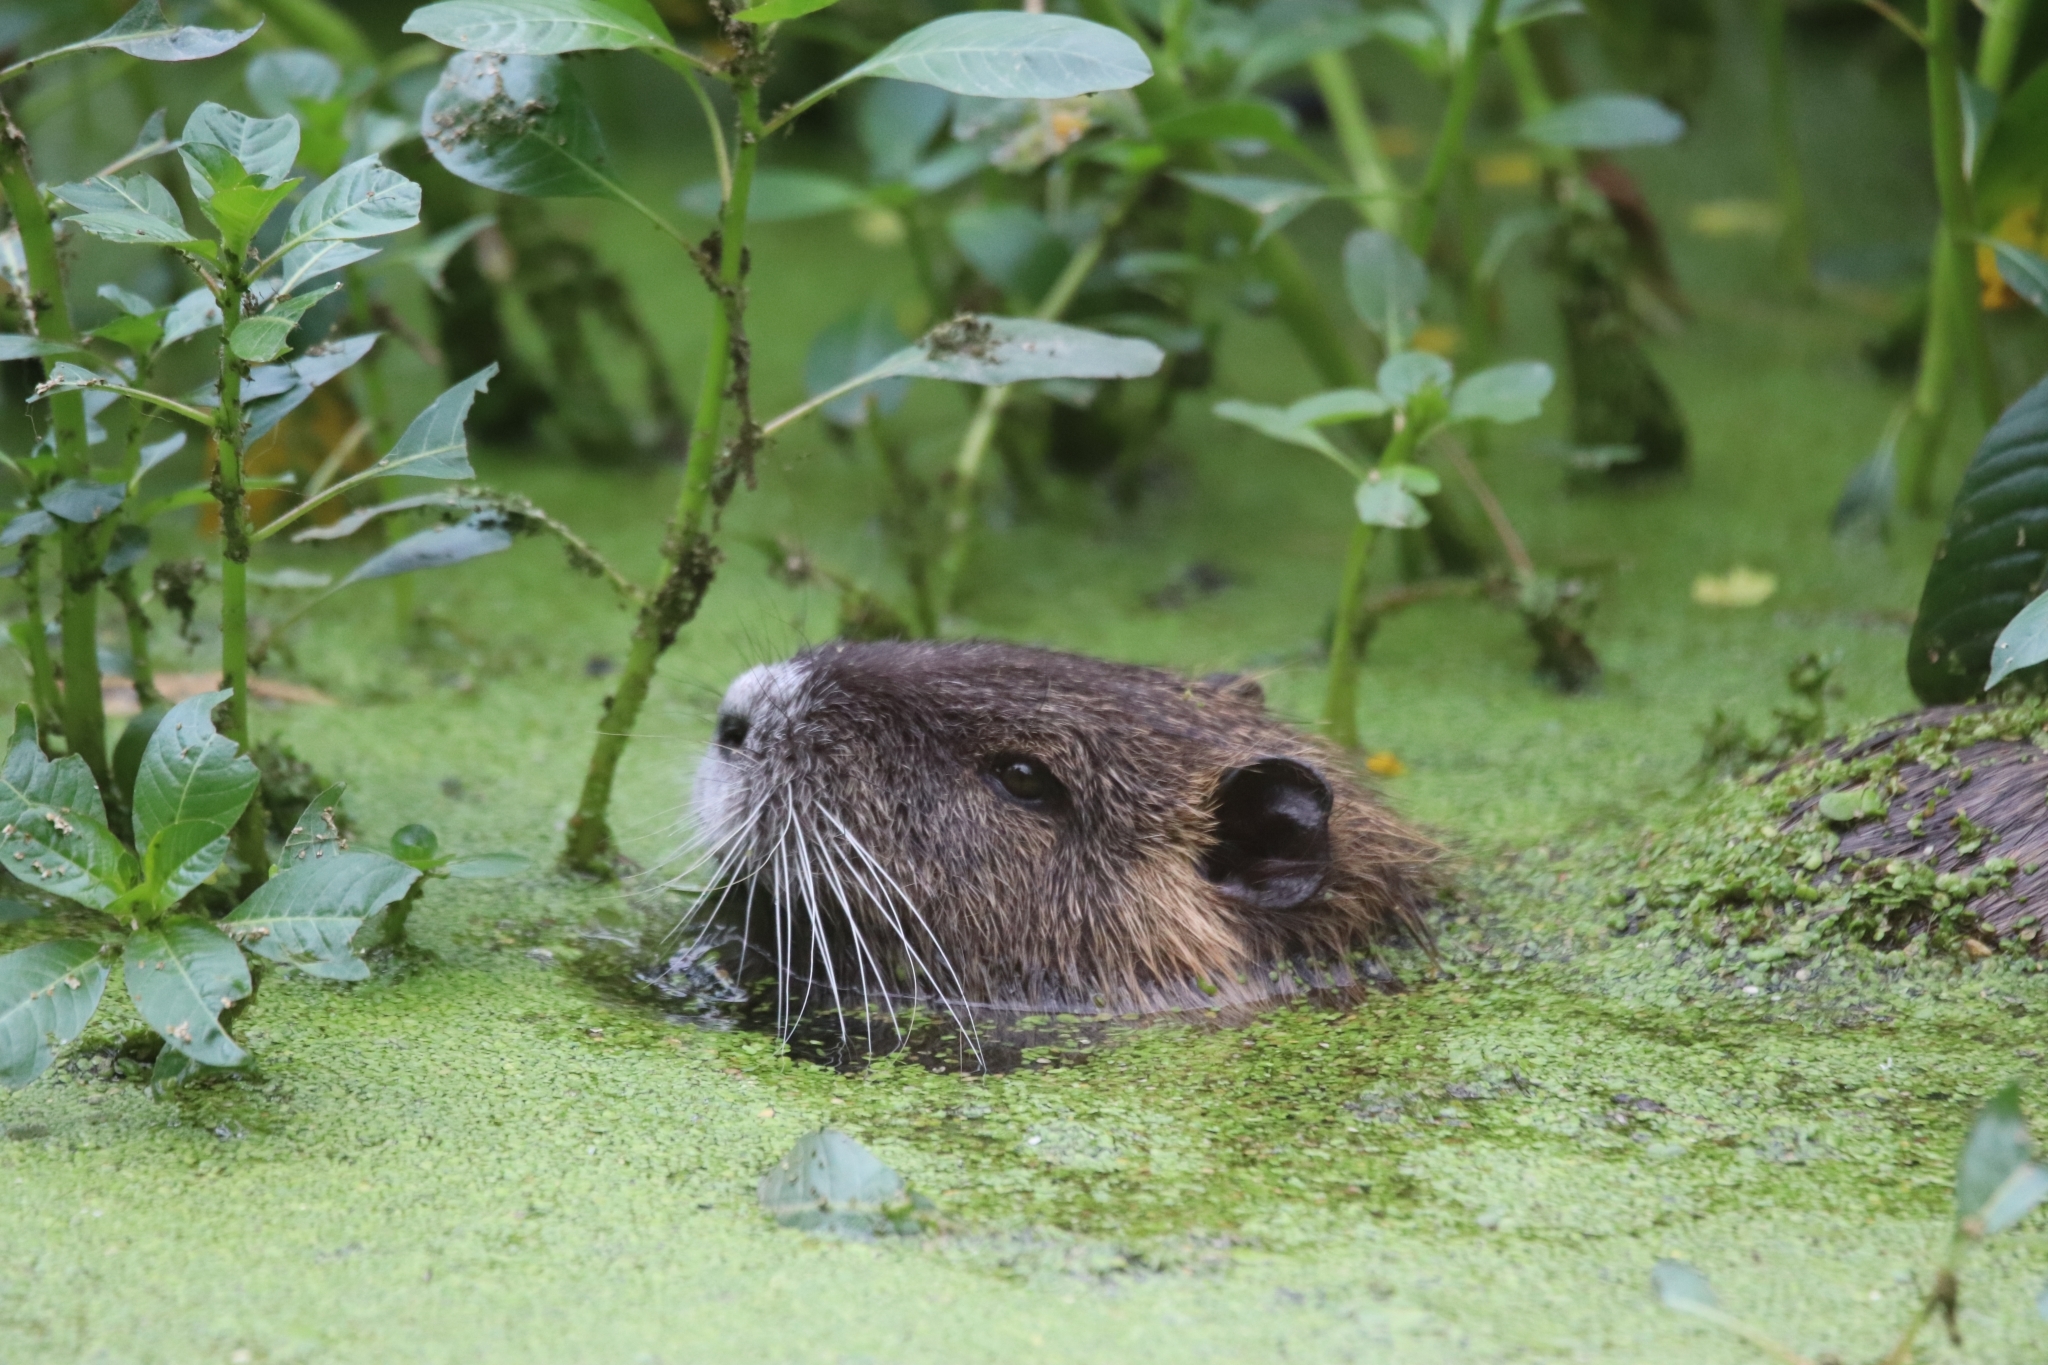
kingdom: Animalia
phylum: Chordata
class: Mammalia
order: Rodentia
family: Myocastoridae
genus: Myocastor
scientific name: Myocastor coypus
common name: Coypu
